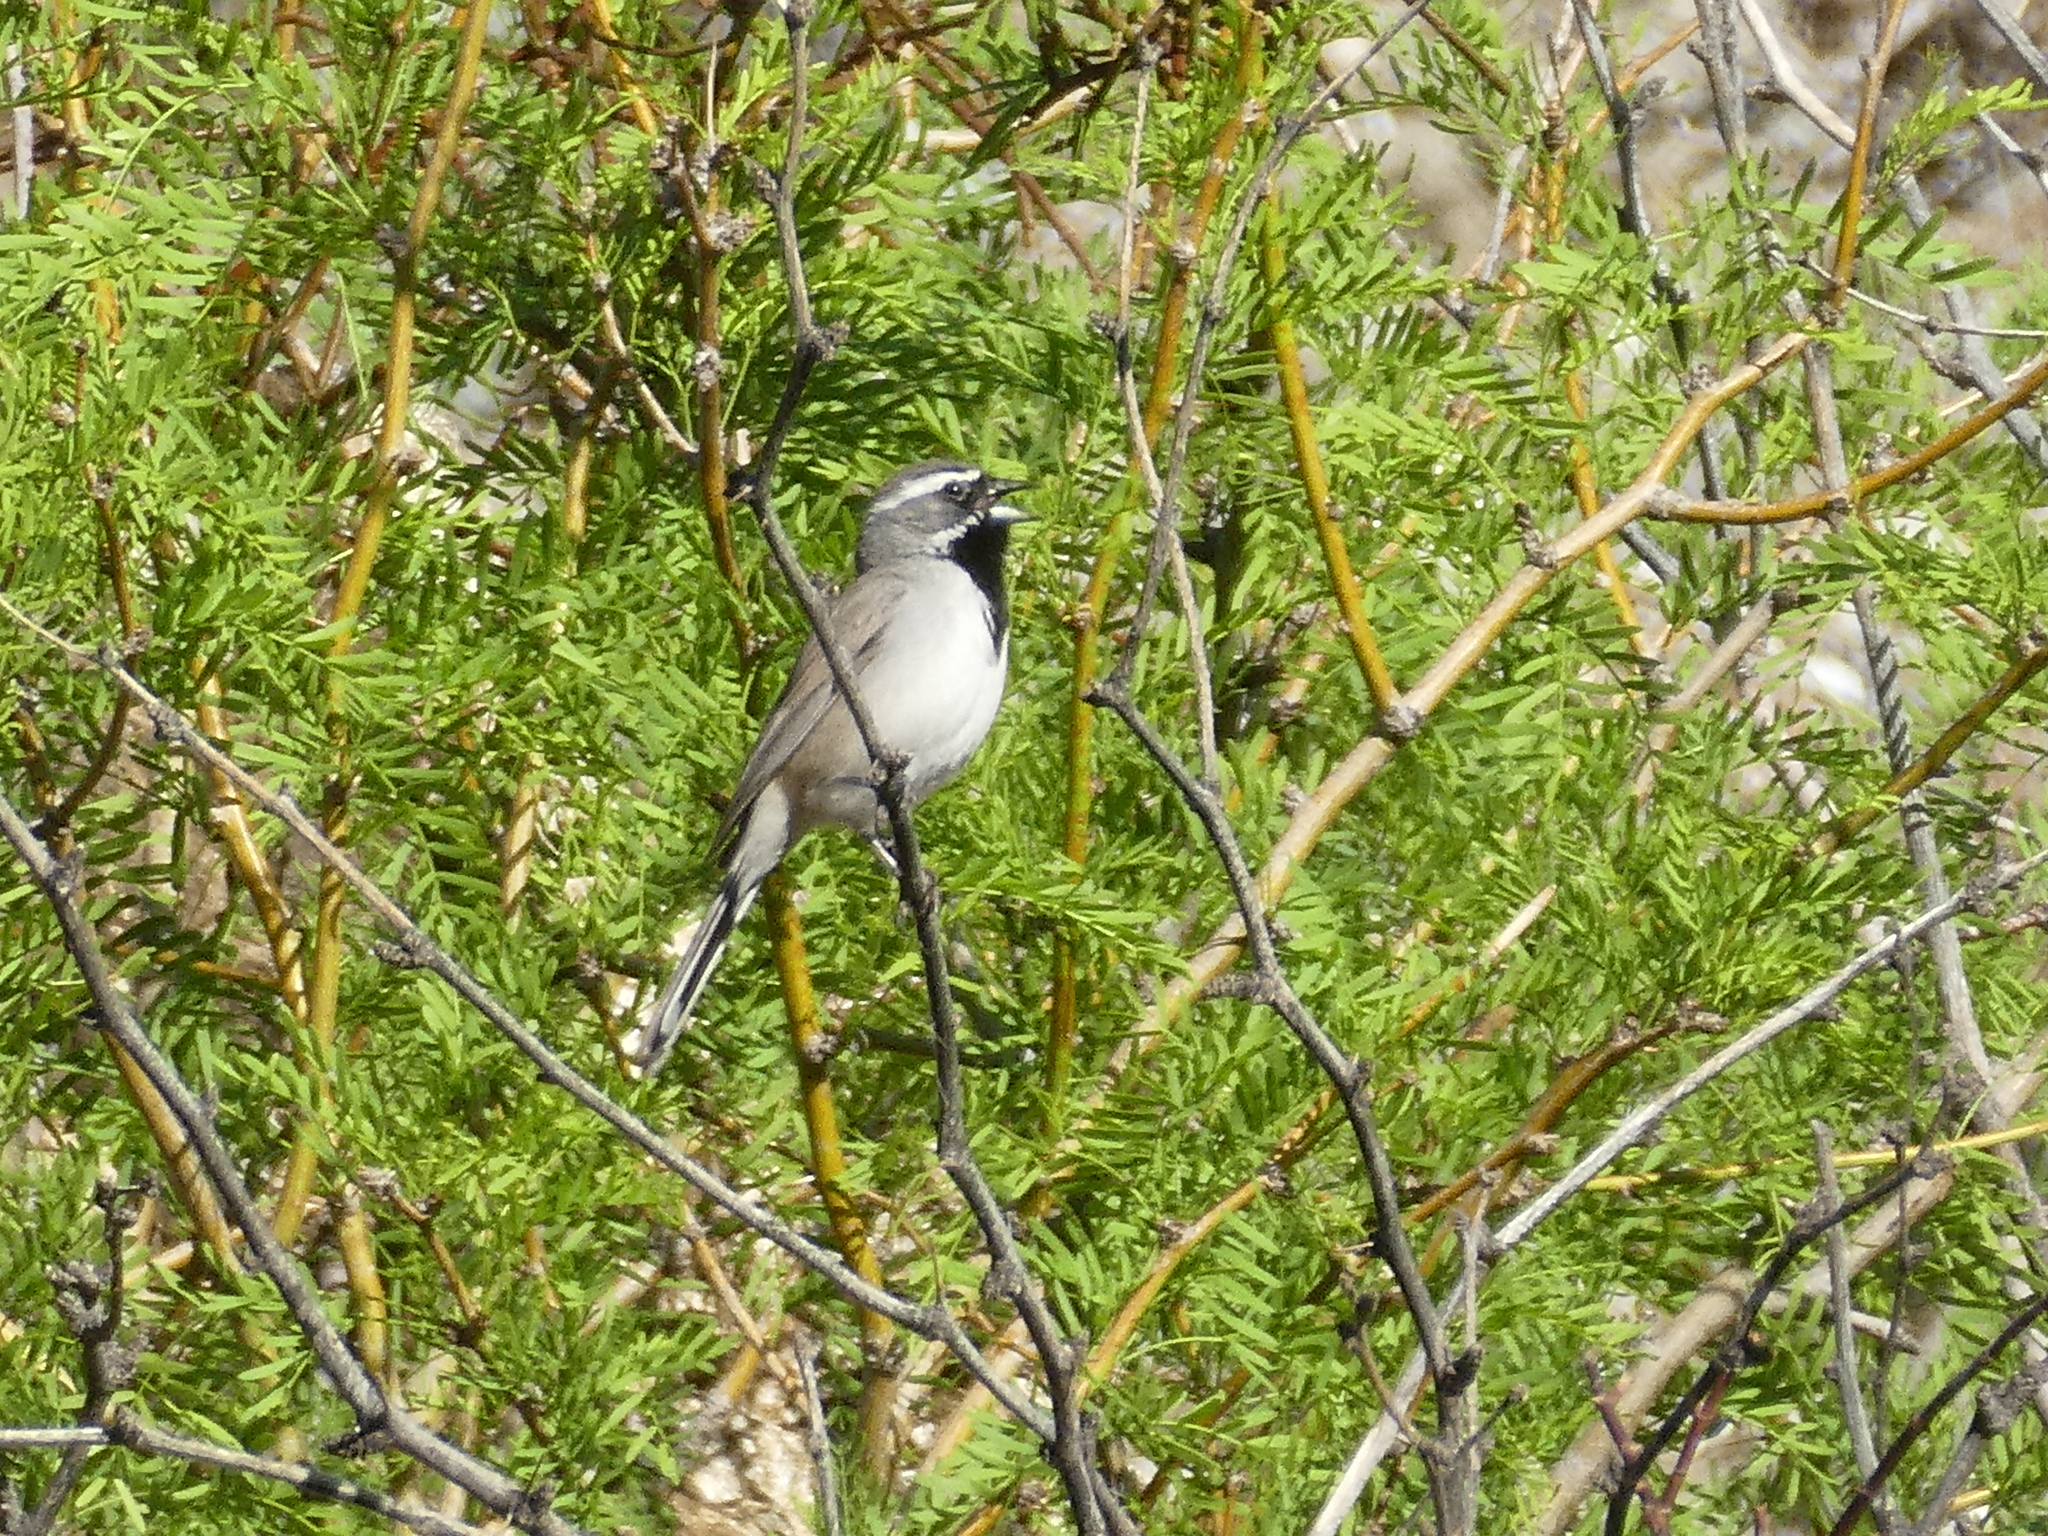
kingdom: Animalia
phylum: Chordata
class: Aves
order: Passeriformes
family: Passerellidae
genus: Amphispiza
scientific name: Amphispiza bilineata
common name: Black-throated sparrow
